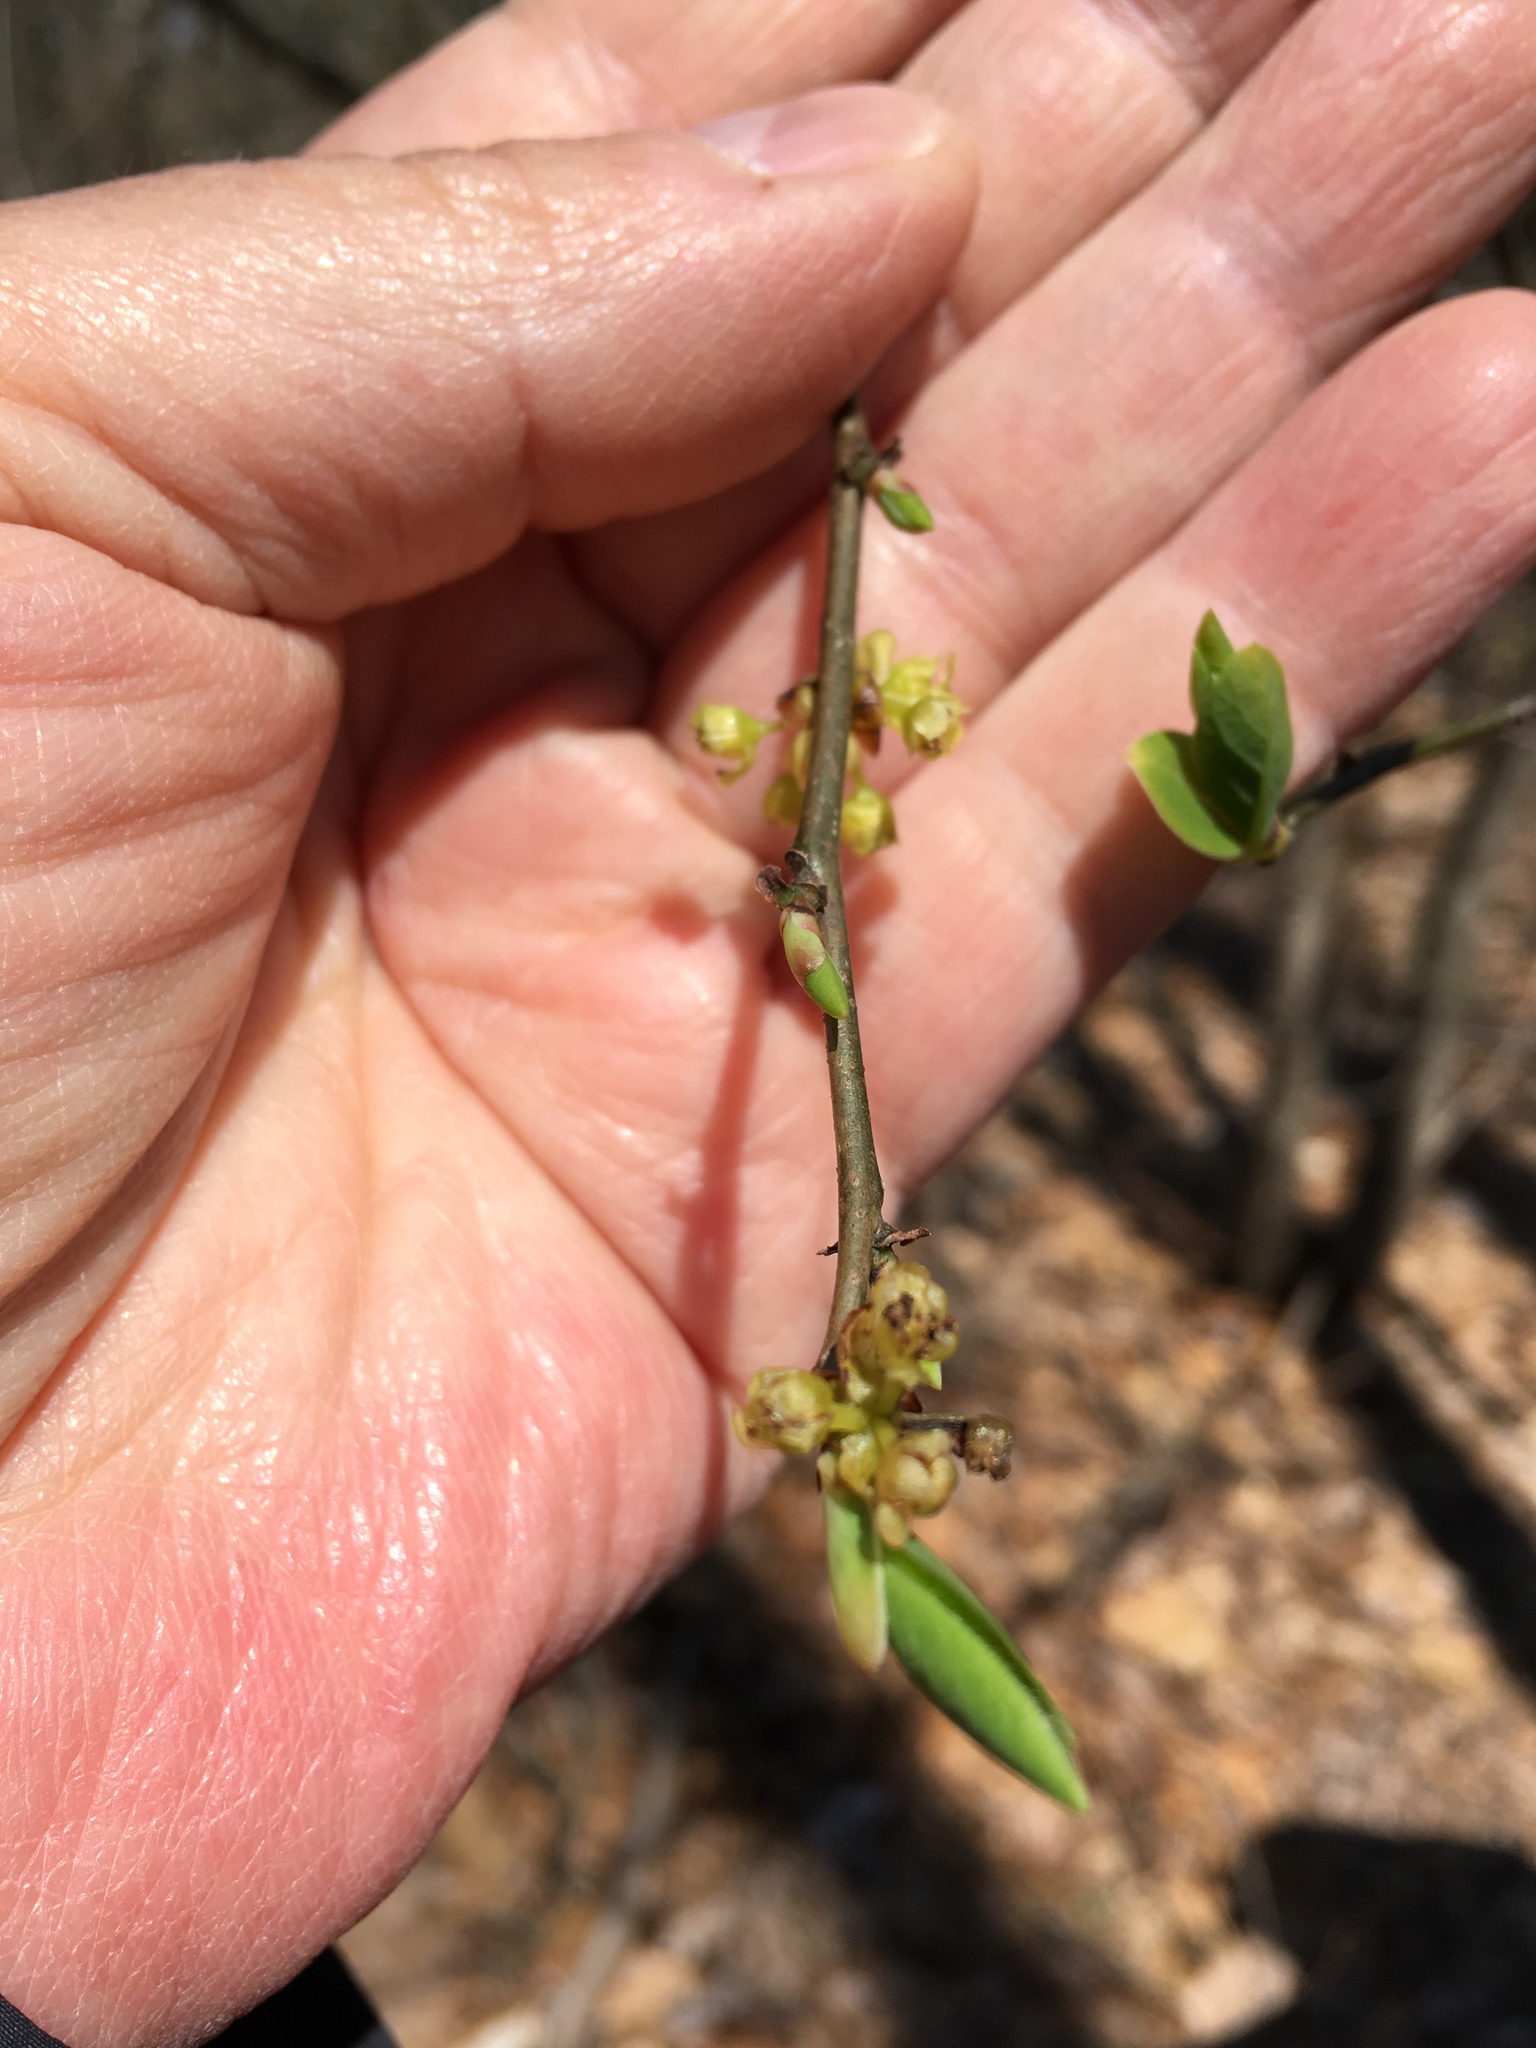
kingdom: Plantae
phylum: Tracheophyta
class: Magnoliopsida
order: Laurales
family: Lauraceae
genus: Lindera
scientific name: Lindera benzoin
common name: Spicebush
